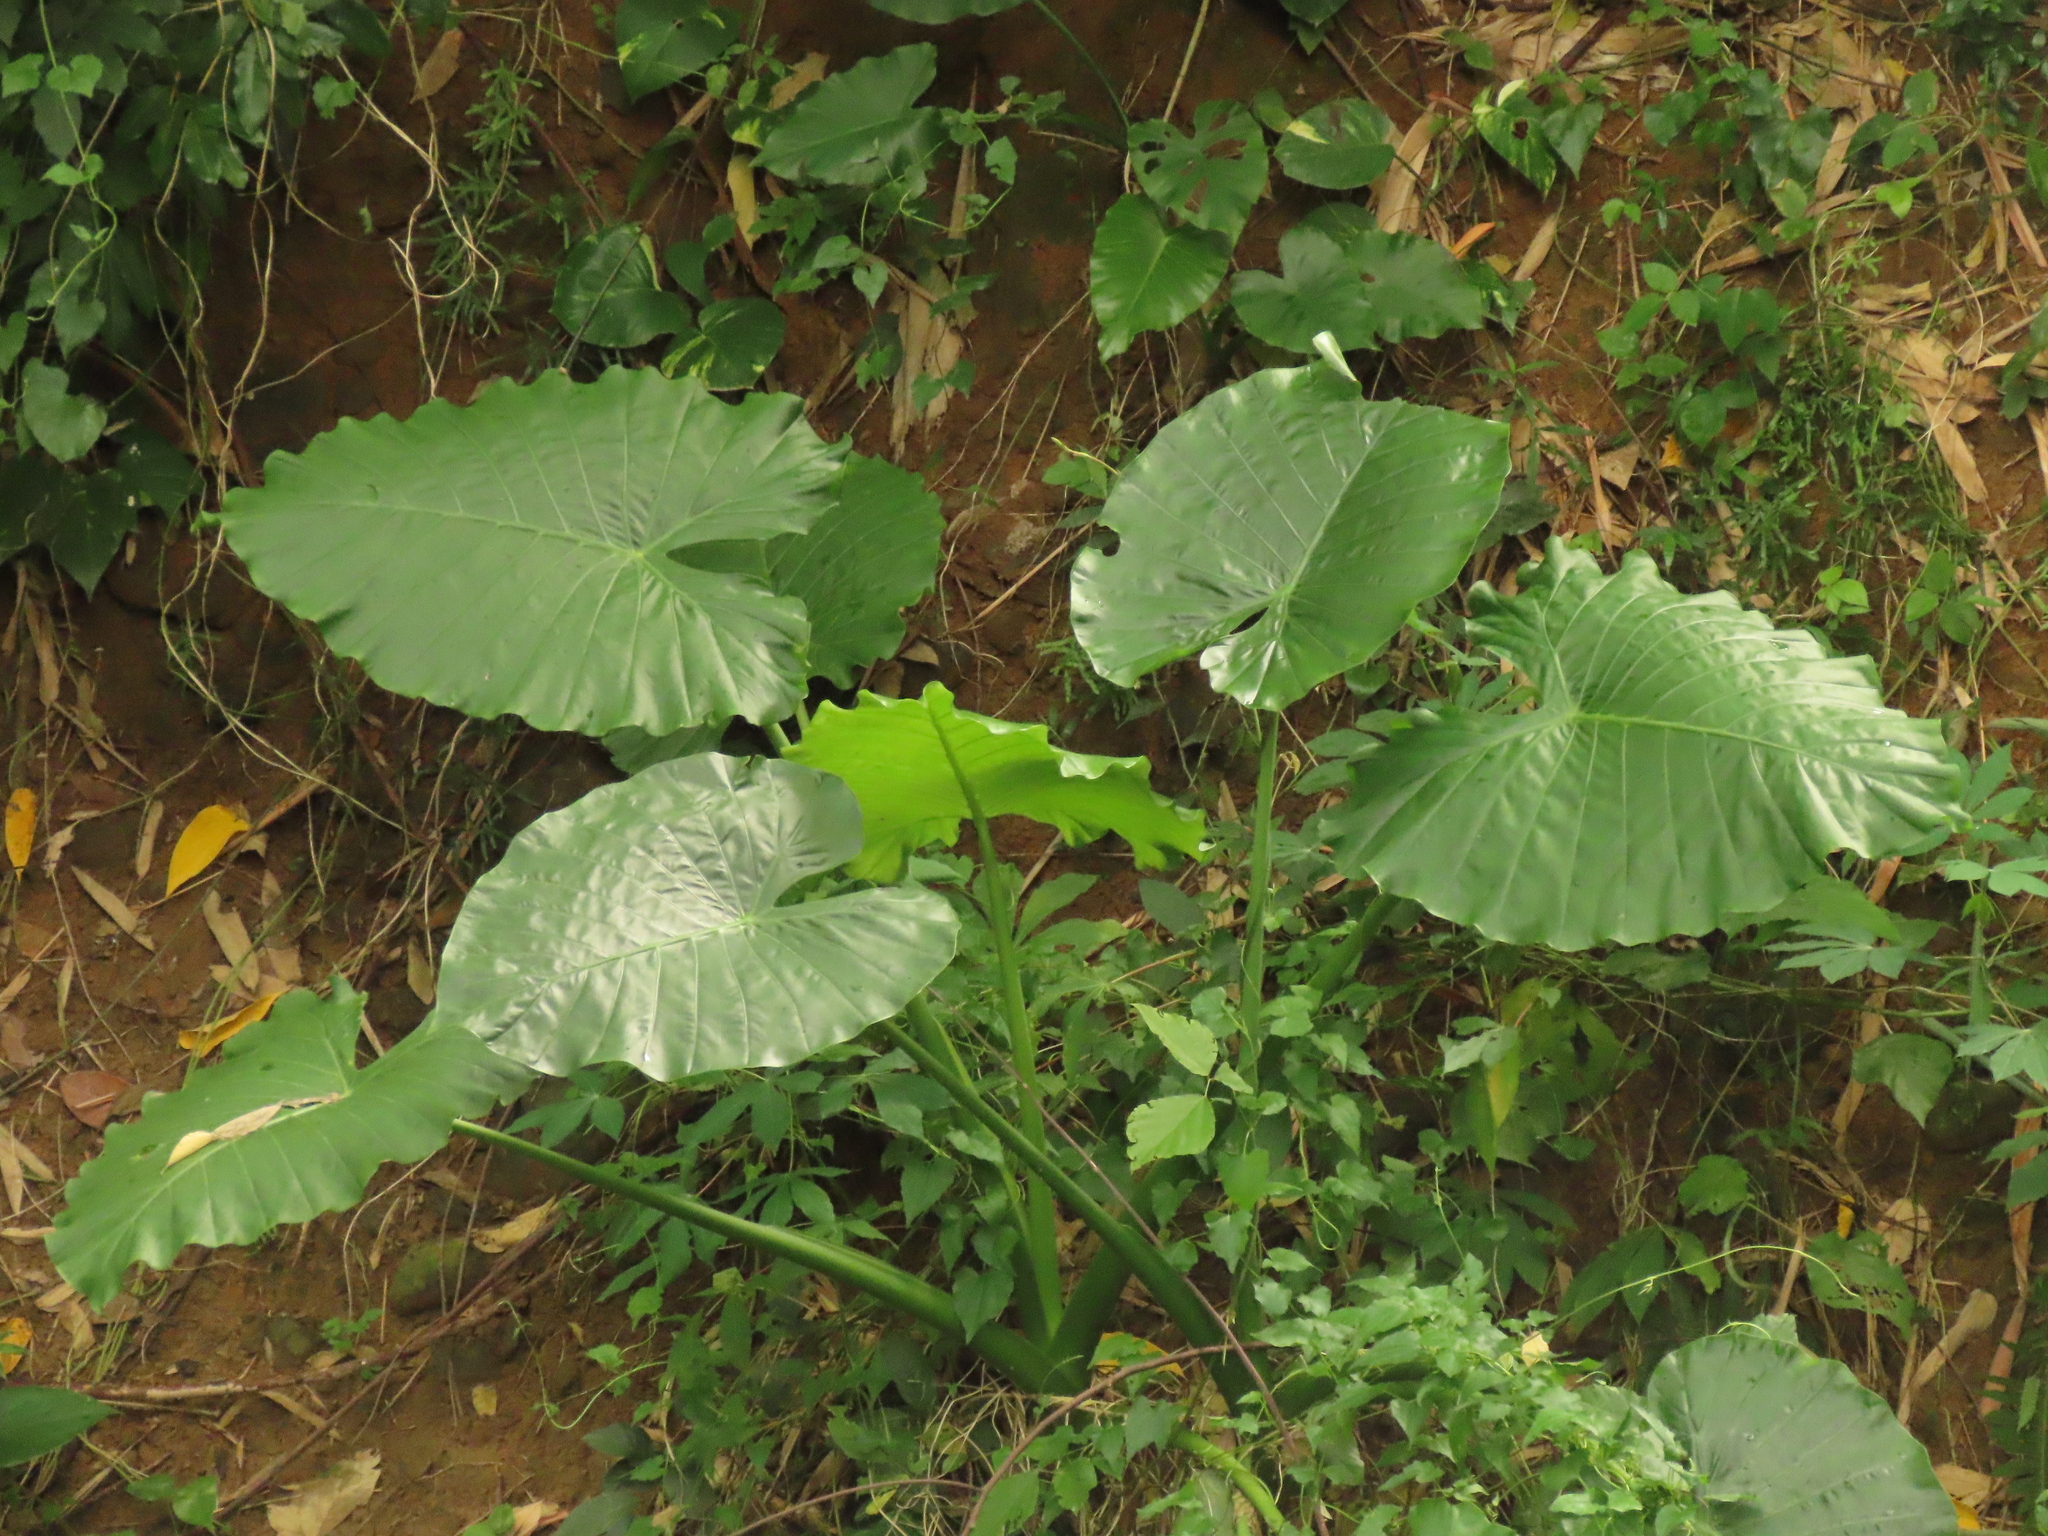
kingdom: Plantae
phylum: Tracheophyta
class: Liliopsida
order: Alismatales
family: Araceae
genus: Alocasia
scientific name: Alocasia odora
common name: Asian taro
